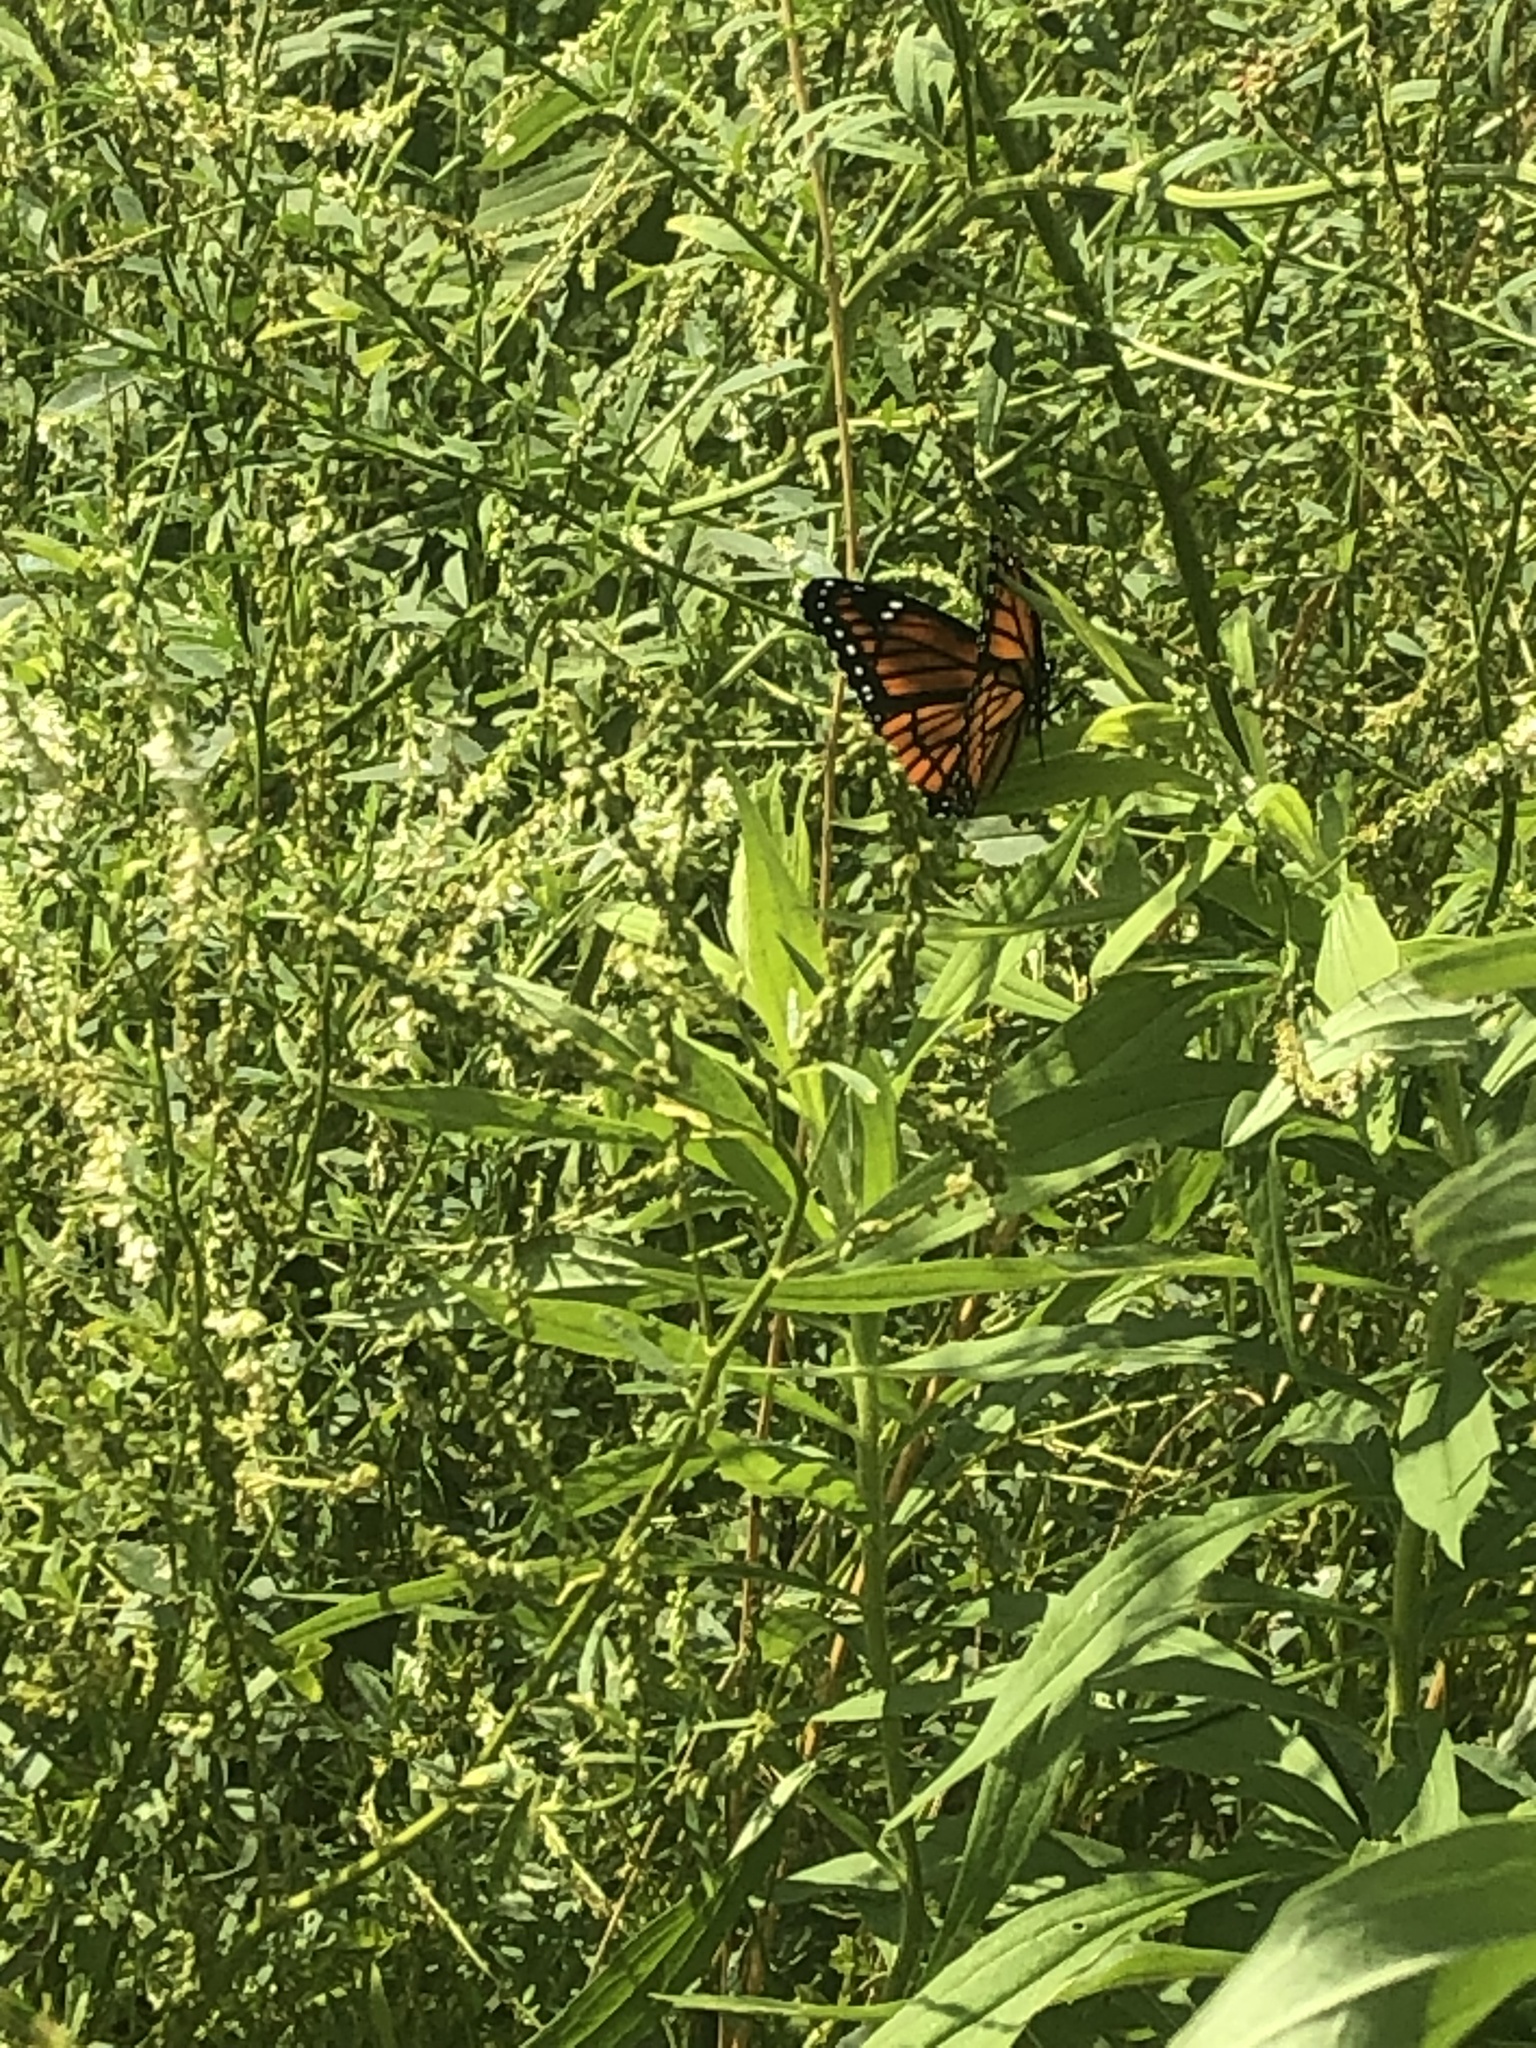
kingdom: Animalia
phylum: Arthropoda
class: Insecta
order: Lepidoptera
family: Nymphalidae
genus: Limenitis
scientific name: Limenitis archippus
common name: Viceroy
